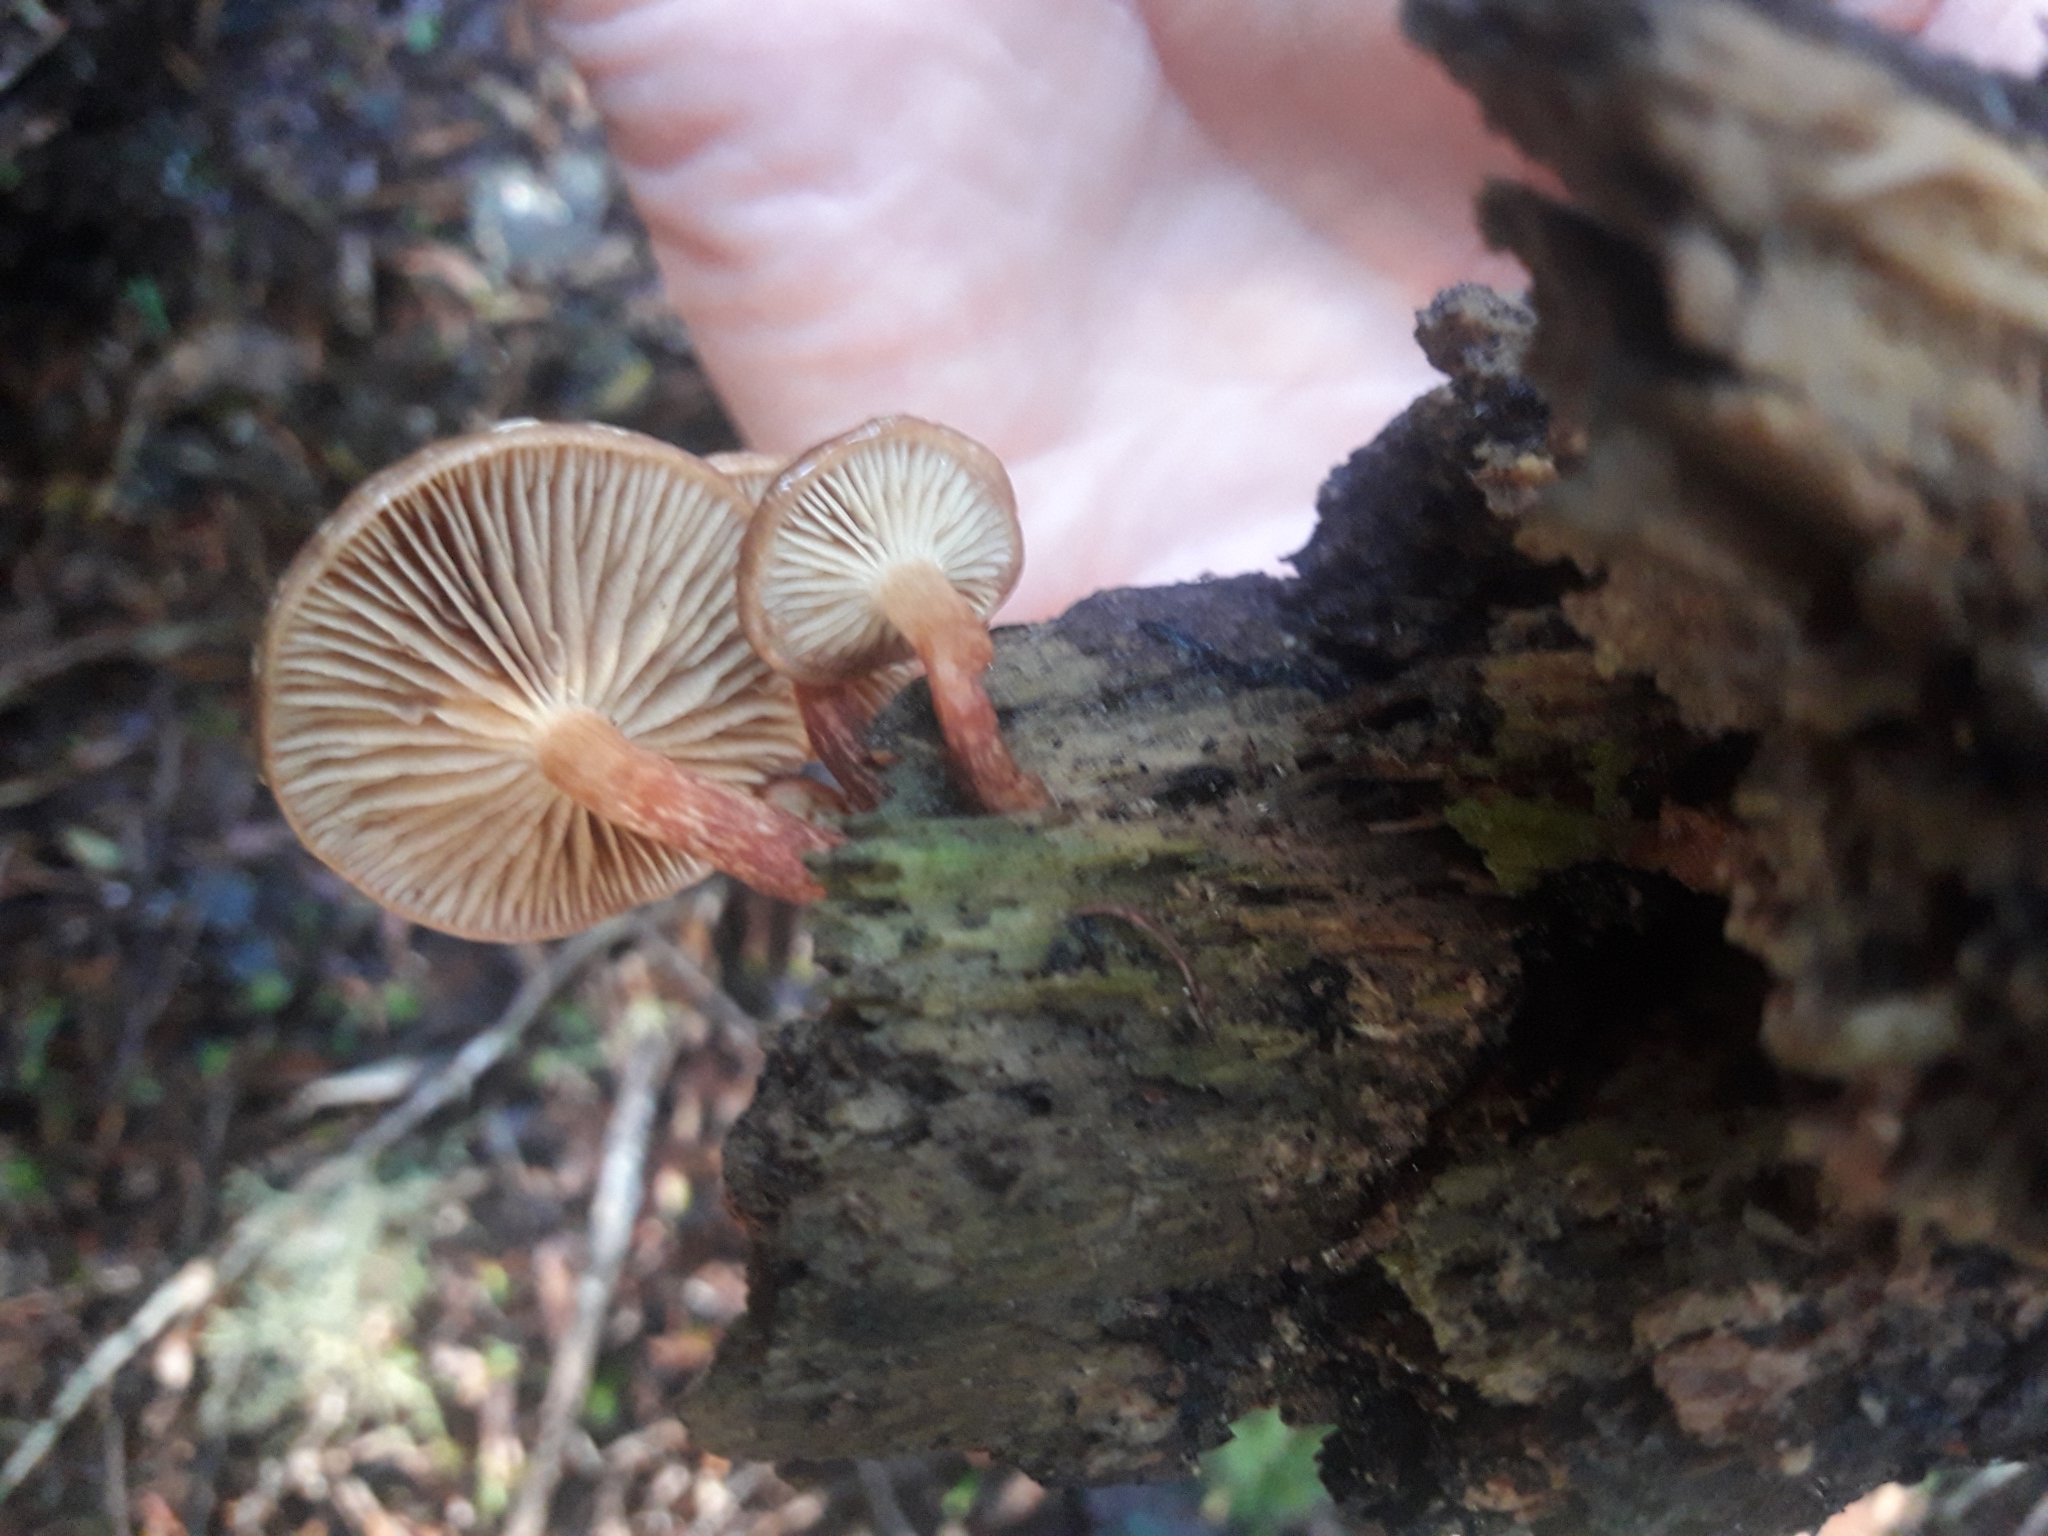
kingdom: Fungi
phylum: Basidiomycota
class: Agaricomycetes
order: Agaricales
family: Strophariaceae
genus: Pholiota
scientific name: Pholiota multicingulata
